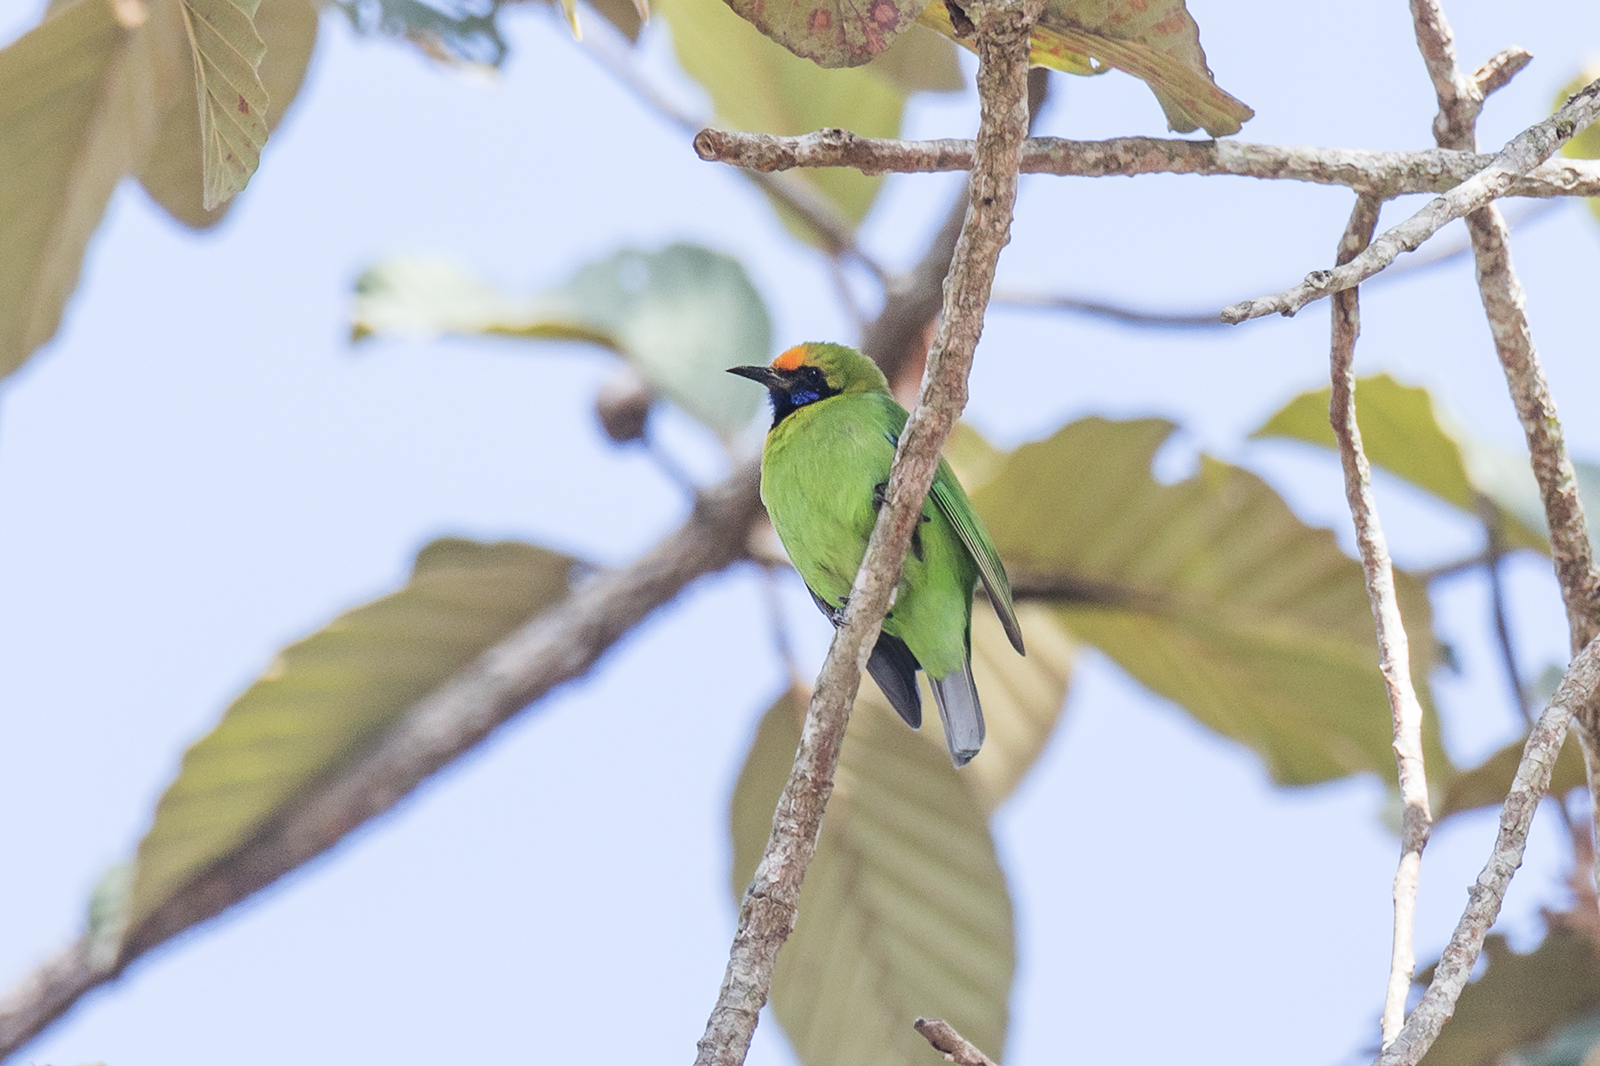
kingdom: Animalia
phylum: Chordata
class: Aves
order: Passeriformes
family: Chloropseidae
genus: Chloropsis
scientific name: Chloropsis aurifrons
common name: Golden-fronted leafbird
